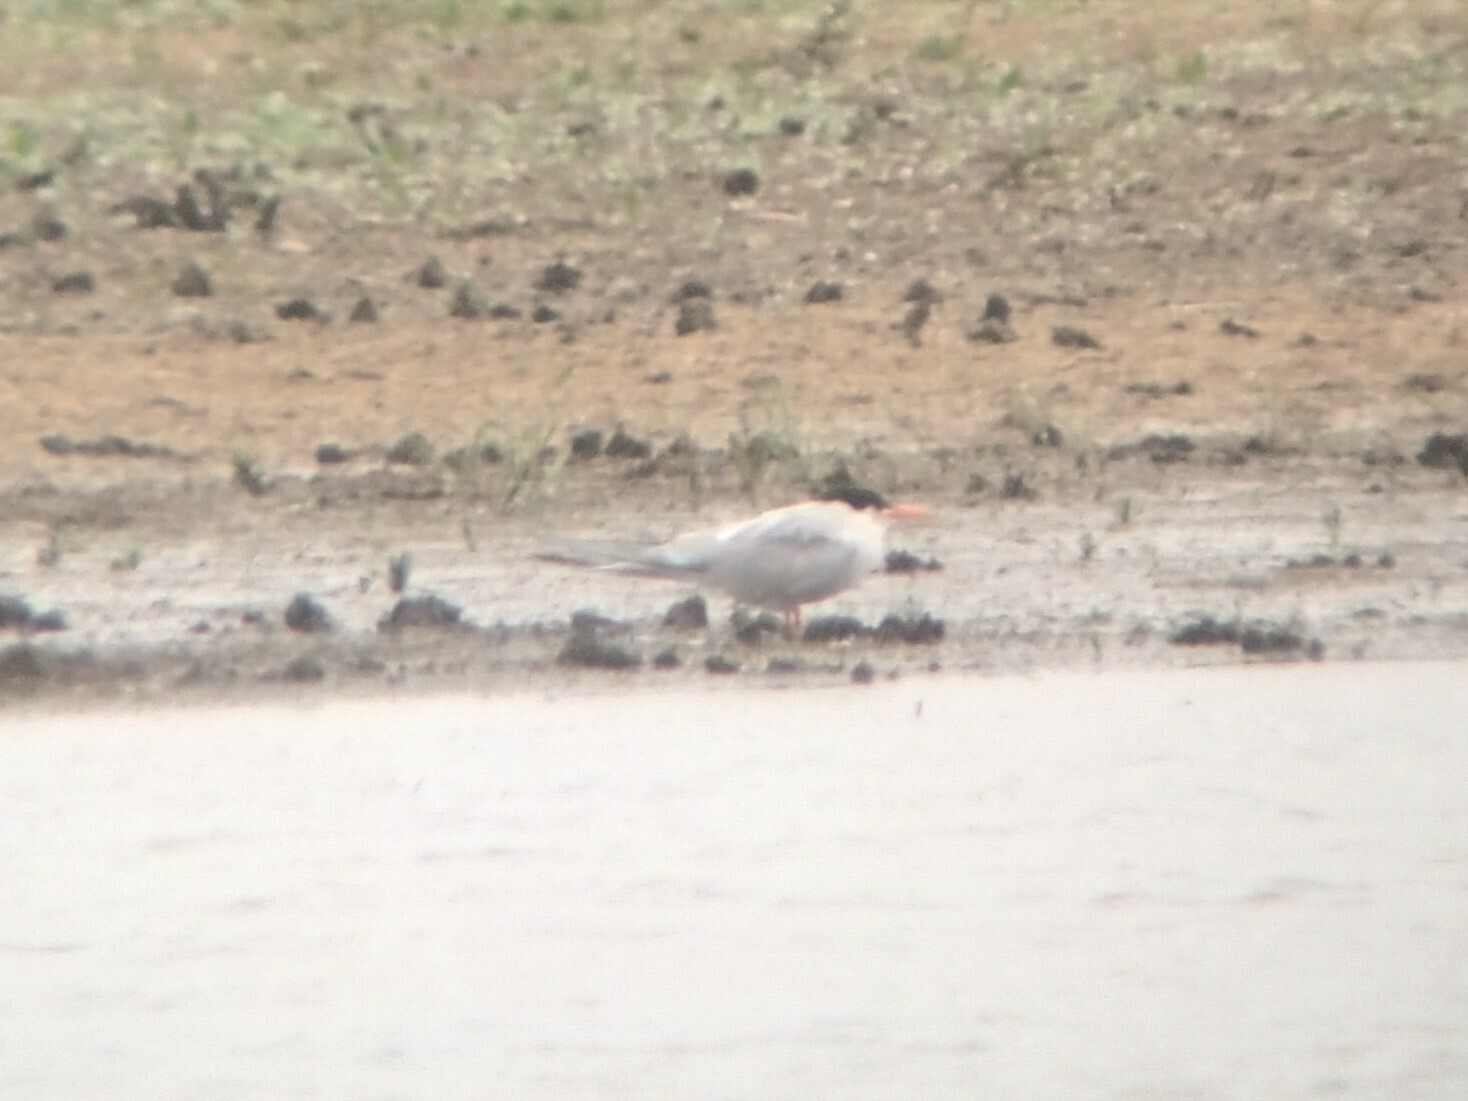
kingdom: Animalia
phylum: Chordata
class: Aves
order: Charadriiformes
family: Laridae
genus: Sterna
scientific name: Sterna hirundo
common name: Common tern
